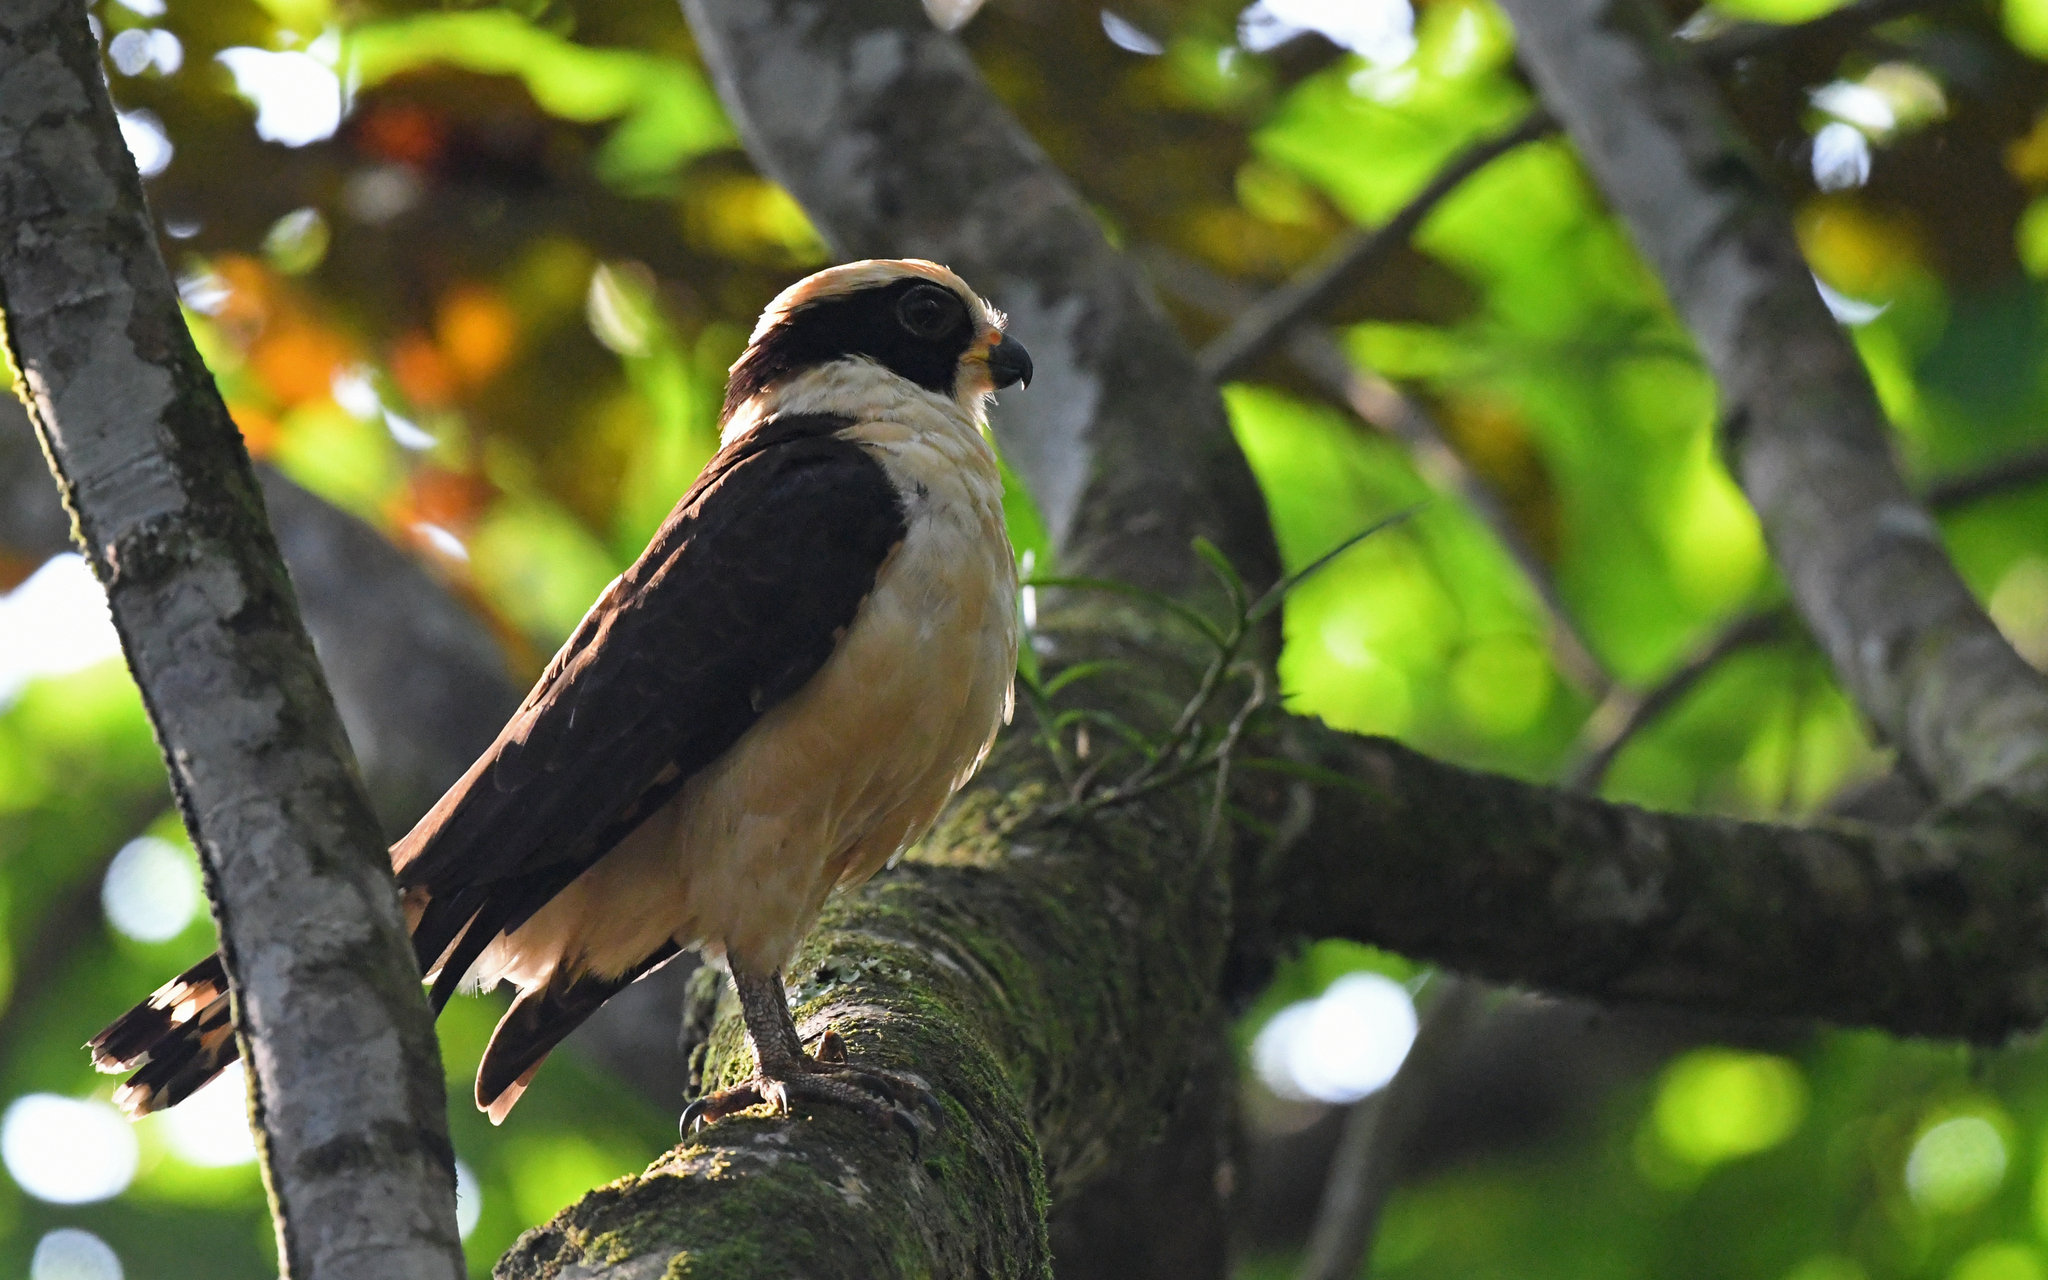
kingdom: Animalia
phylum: Chordata
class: Aves
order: Falconiformes
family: Falconidae
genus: Herpetotheres
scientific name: Herpetotheres cachinnans
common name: Laughing falcon
